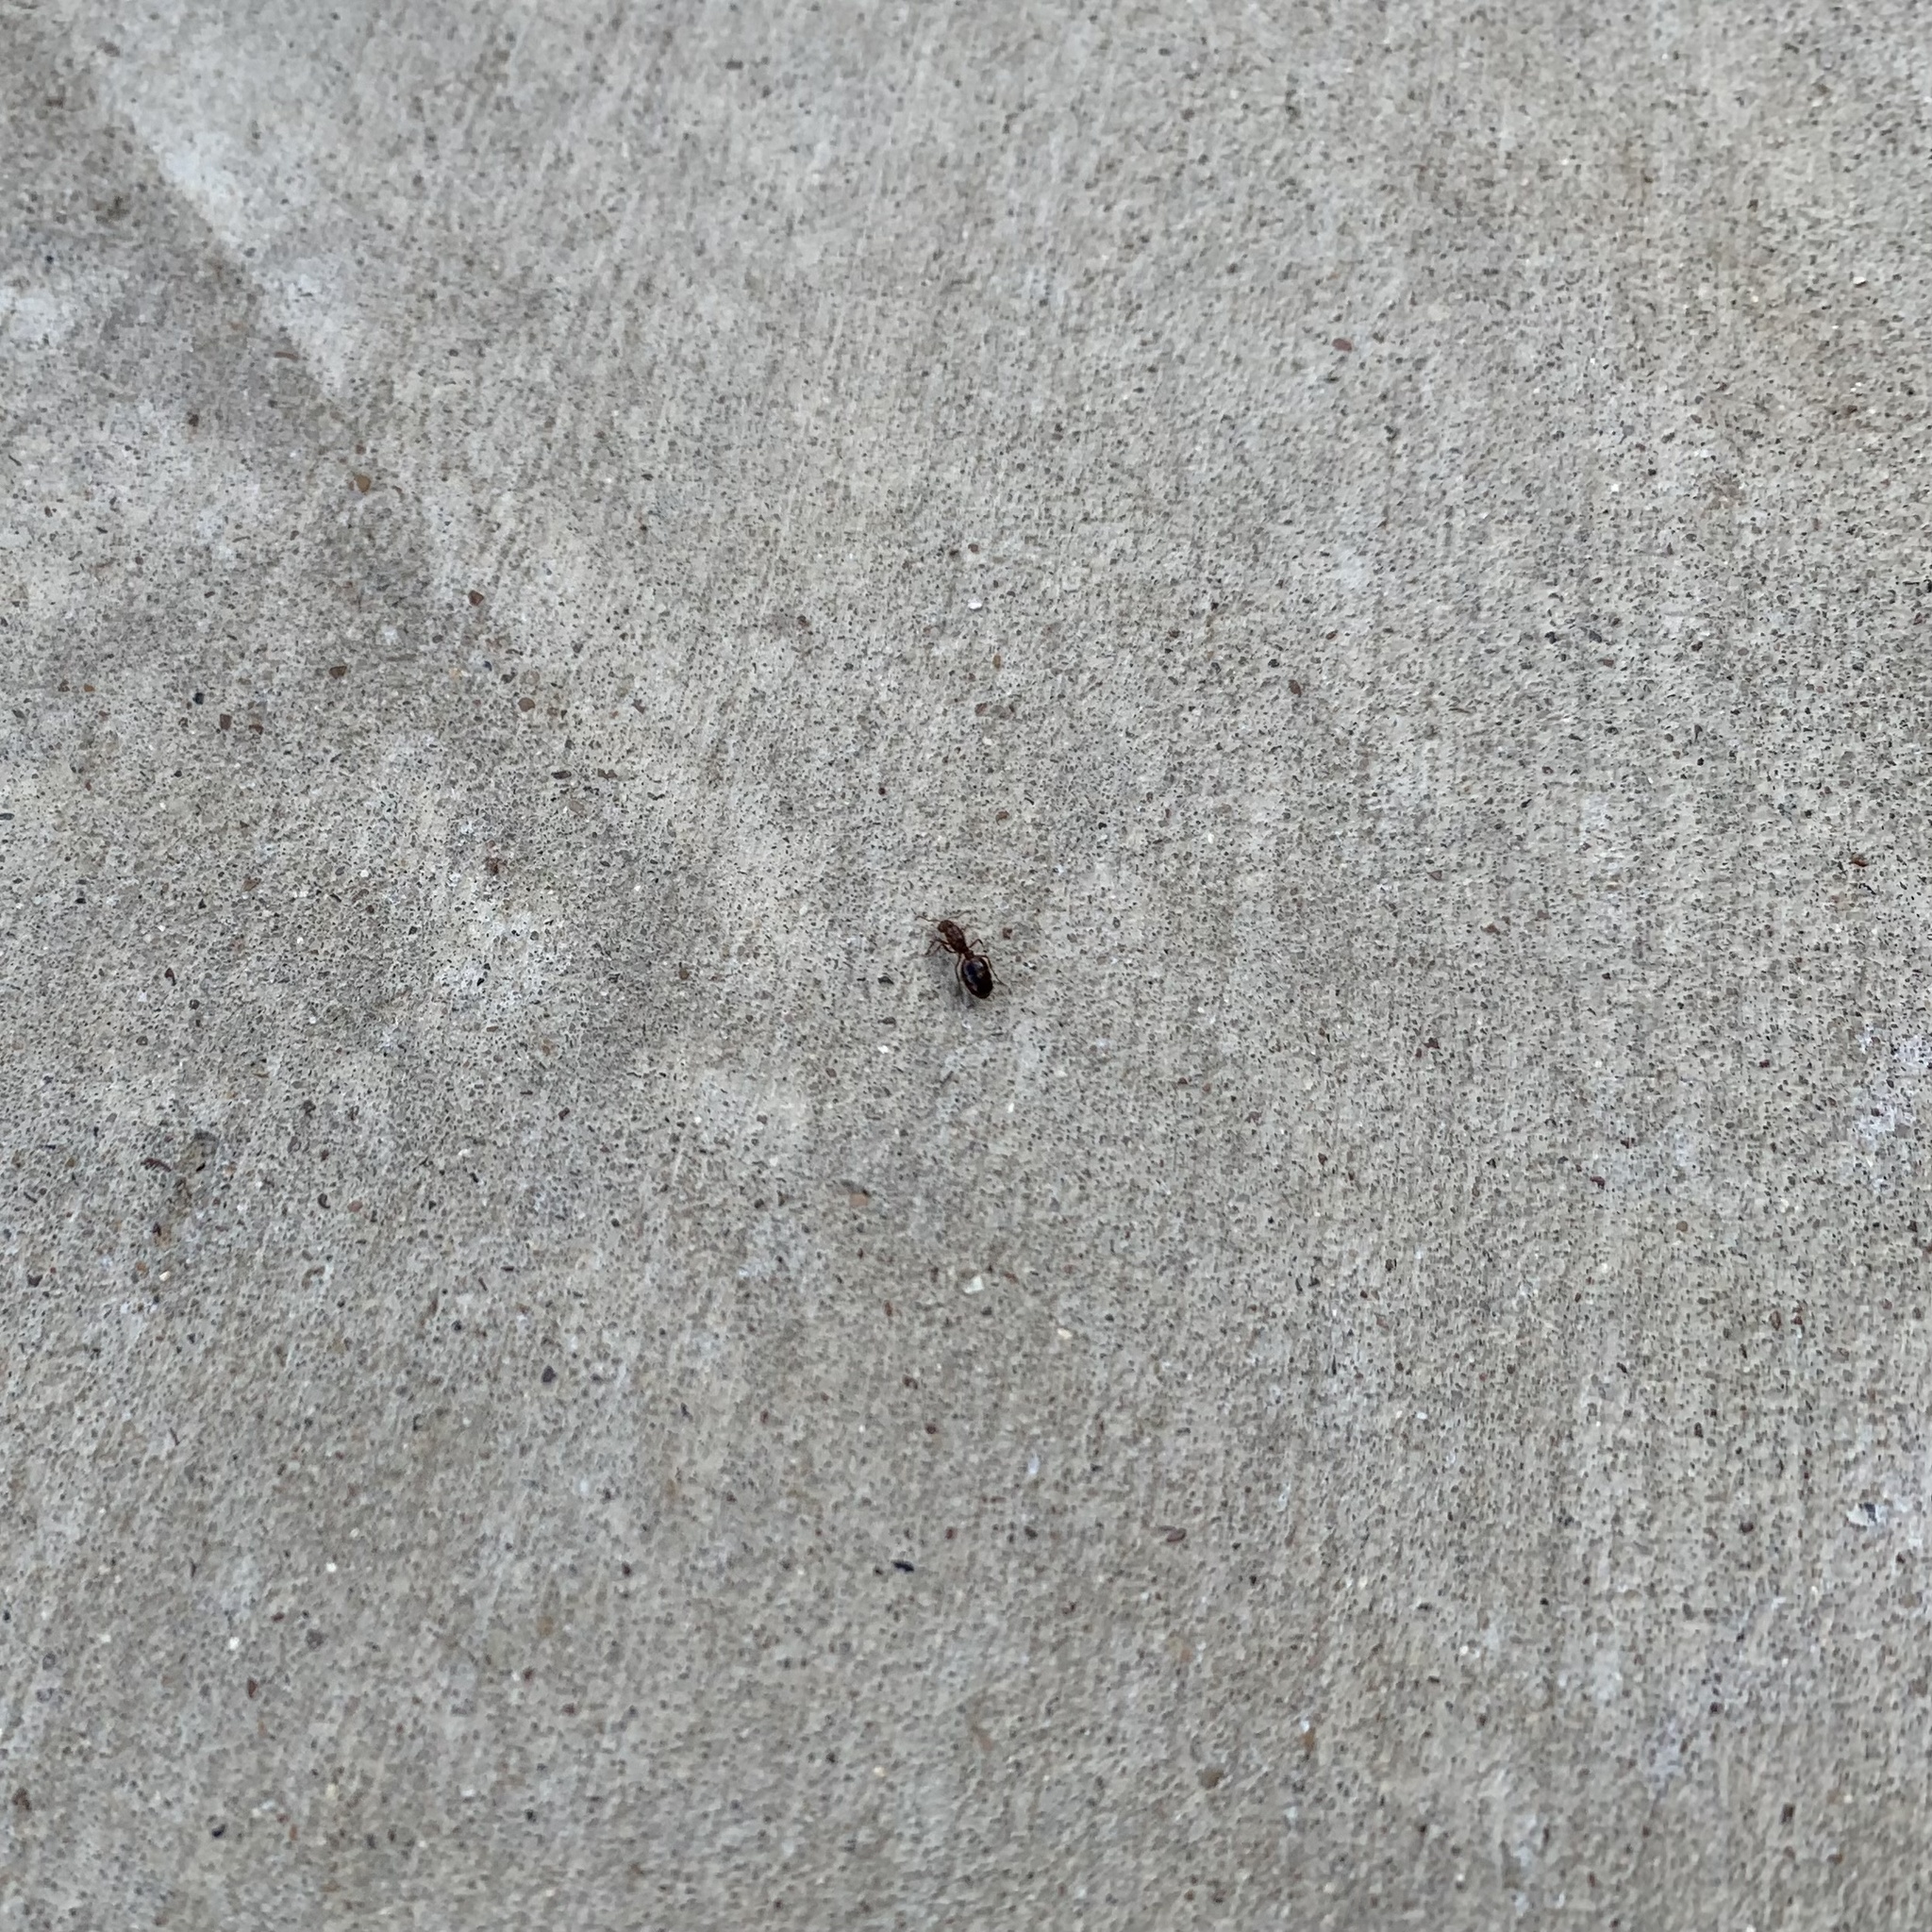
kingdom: Animalia
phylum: Arthropoda
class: Insecta
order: Hymenoptera
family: Formicidae
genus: Solenopsis
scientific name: Solenopsis invicta
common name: Red imported fire ant
